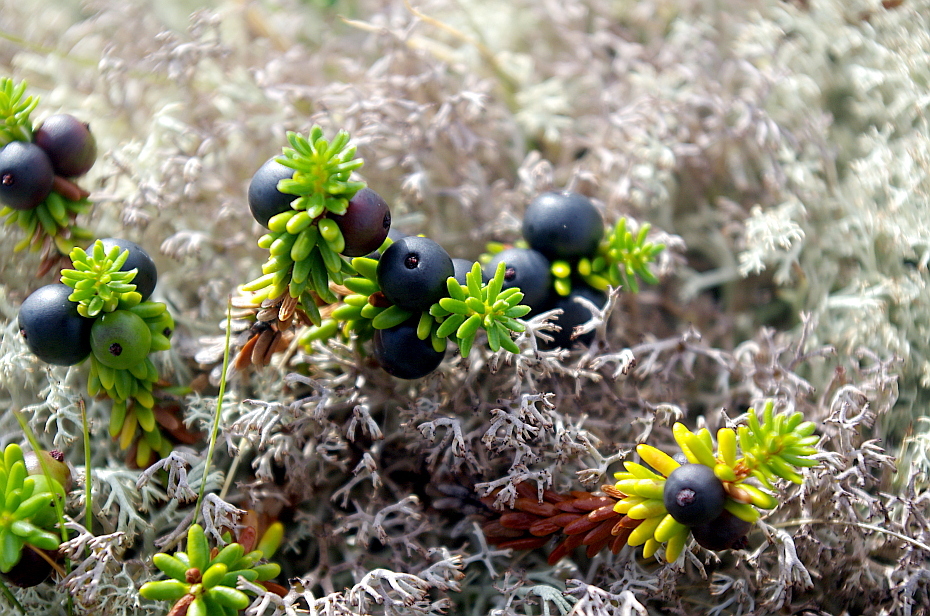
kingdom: Plantae
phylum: Tracheophyta
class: Magnoliopsida
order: Ericales
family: Ericaceae
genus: Empetrum
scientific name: Empetrum nigrum
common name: Black crowberry
